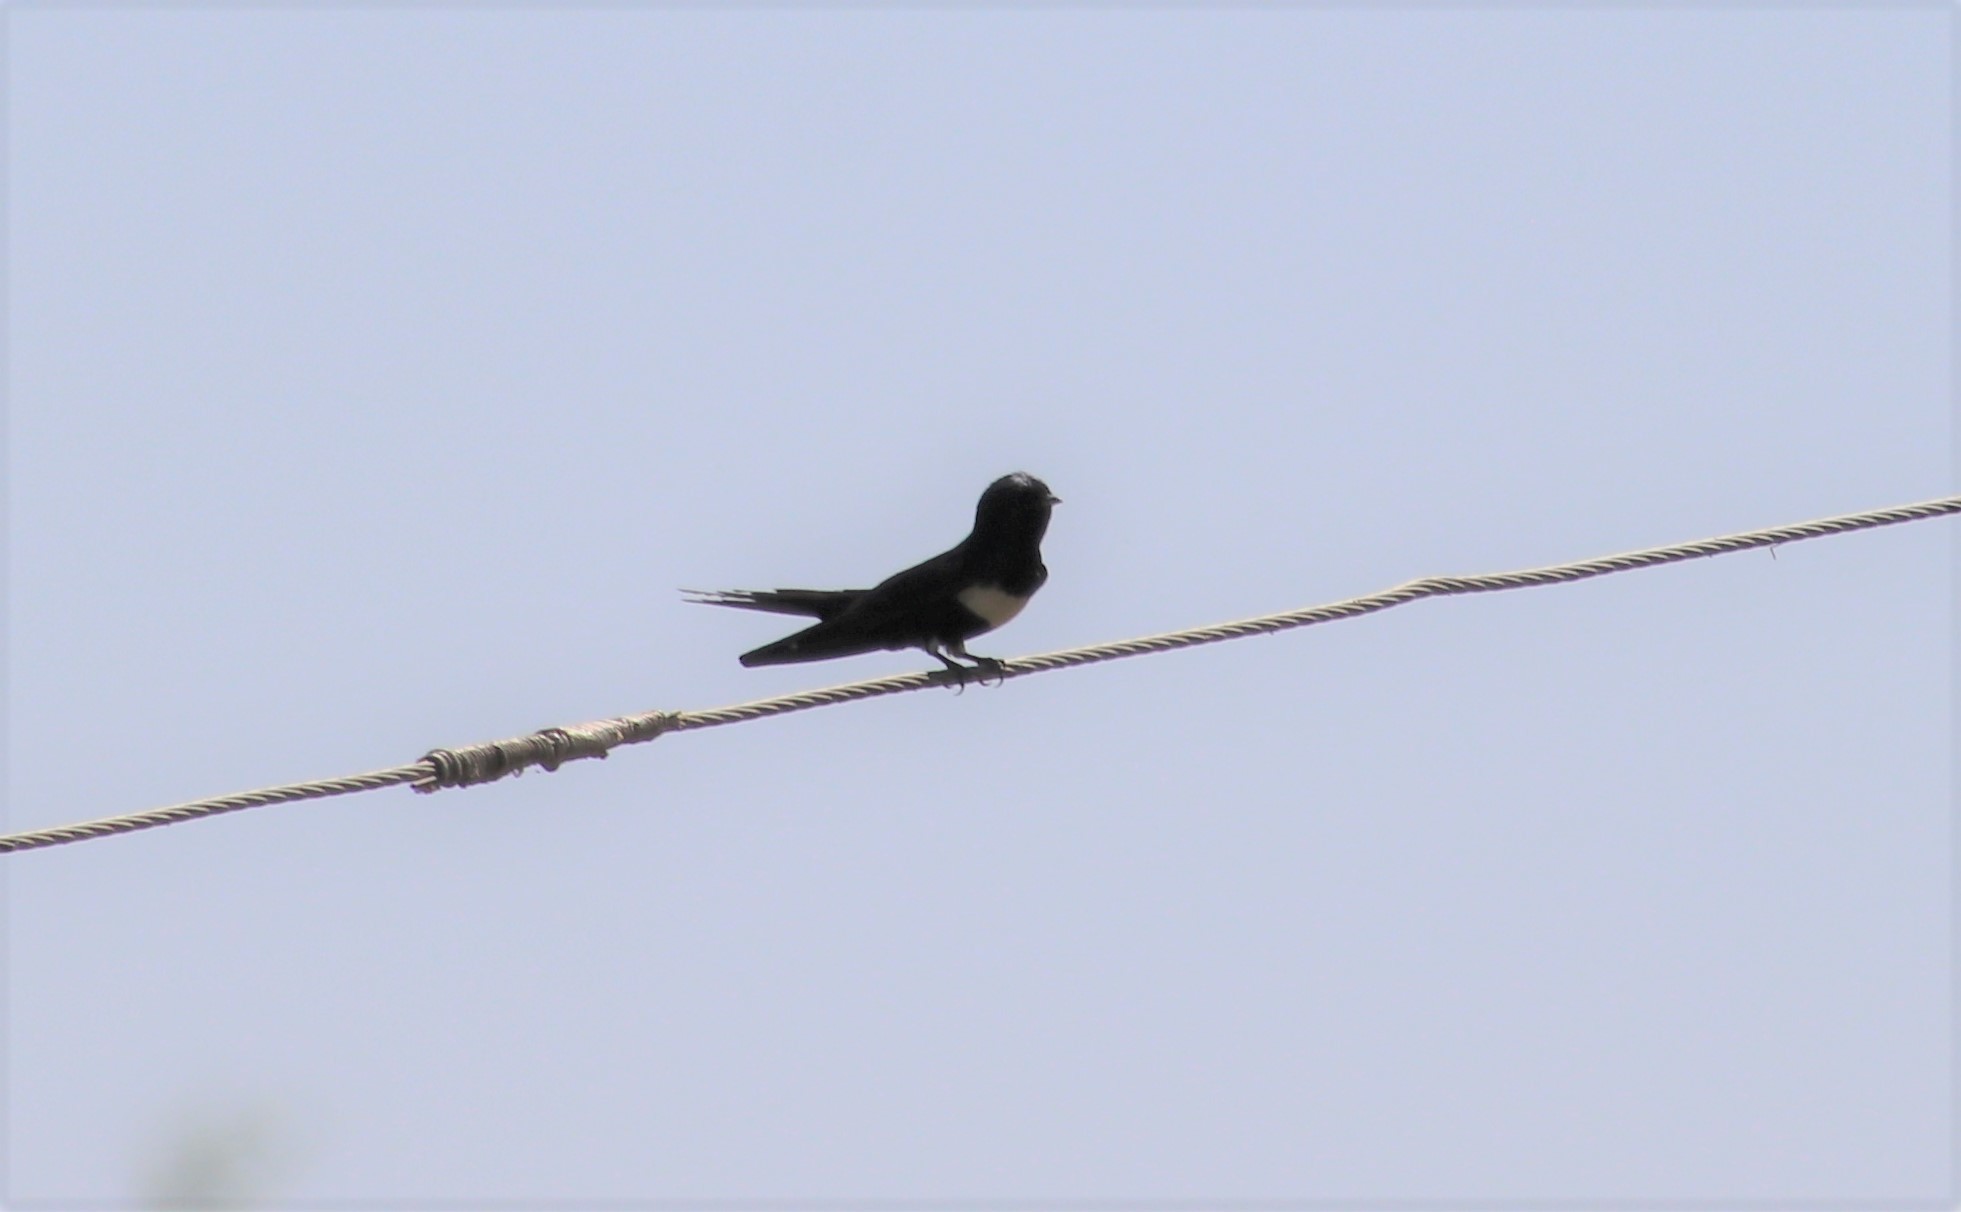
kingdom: Animalia
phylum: Chordata
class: Aves
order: Passeriformes
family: Hirundinidae
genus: Atticora
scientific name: Atticora fasciata
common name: White-banded swallow
